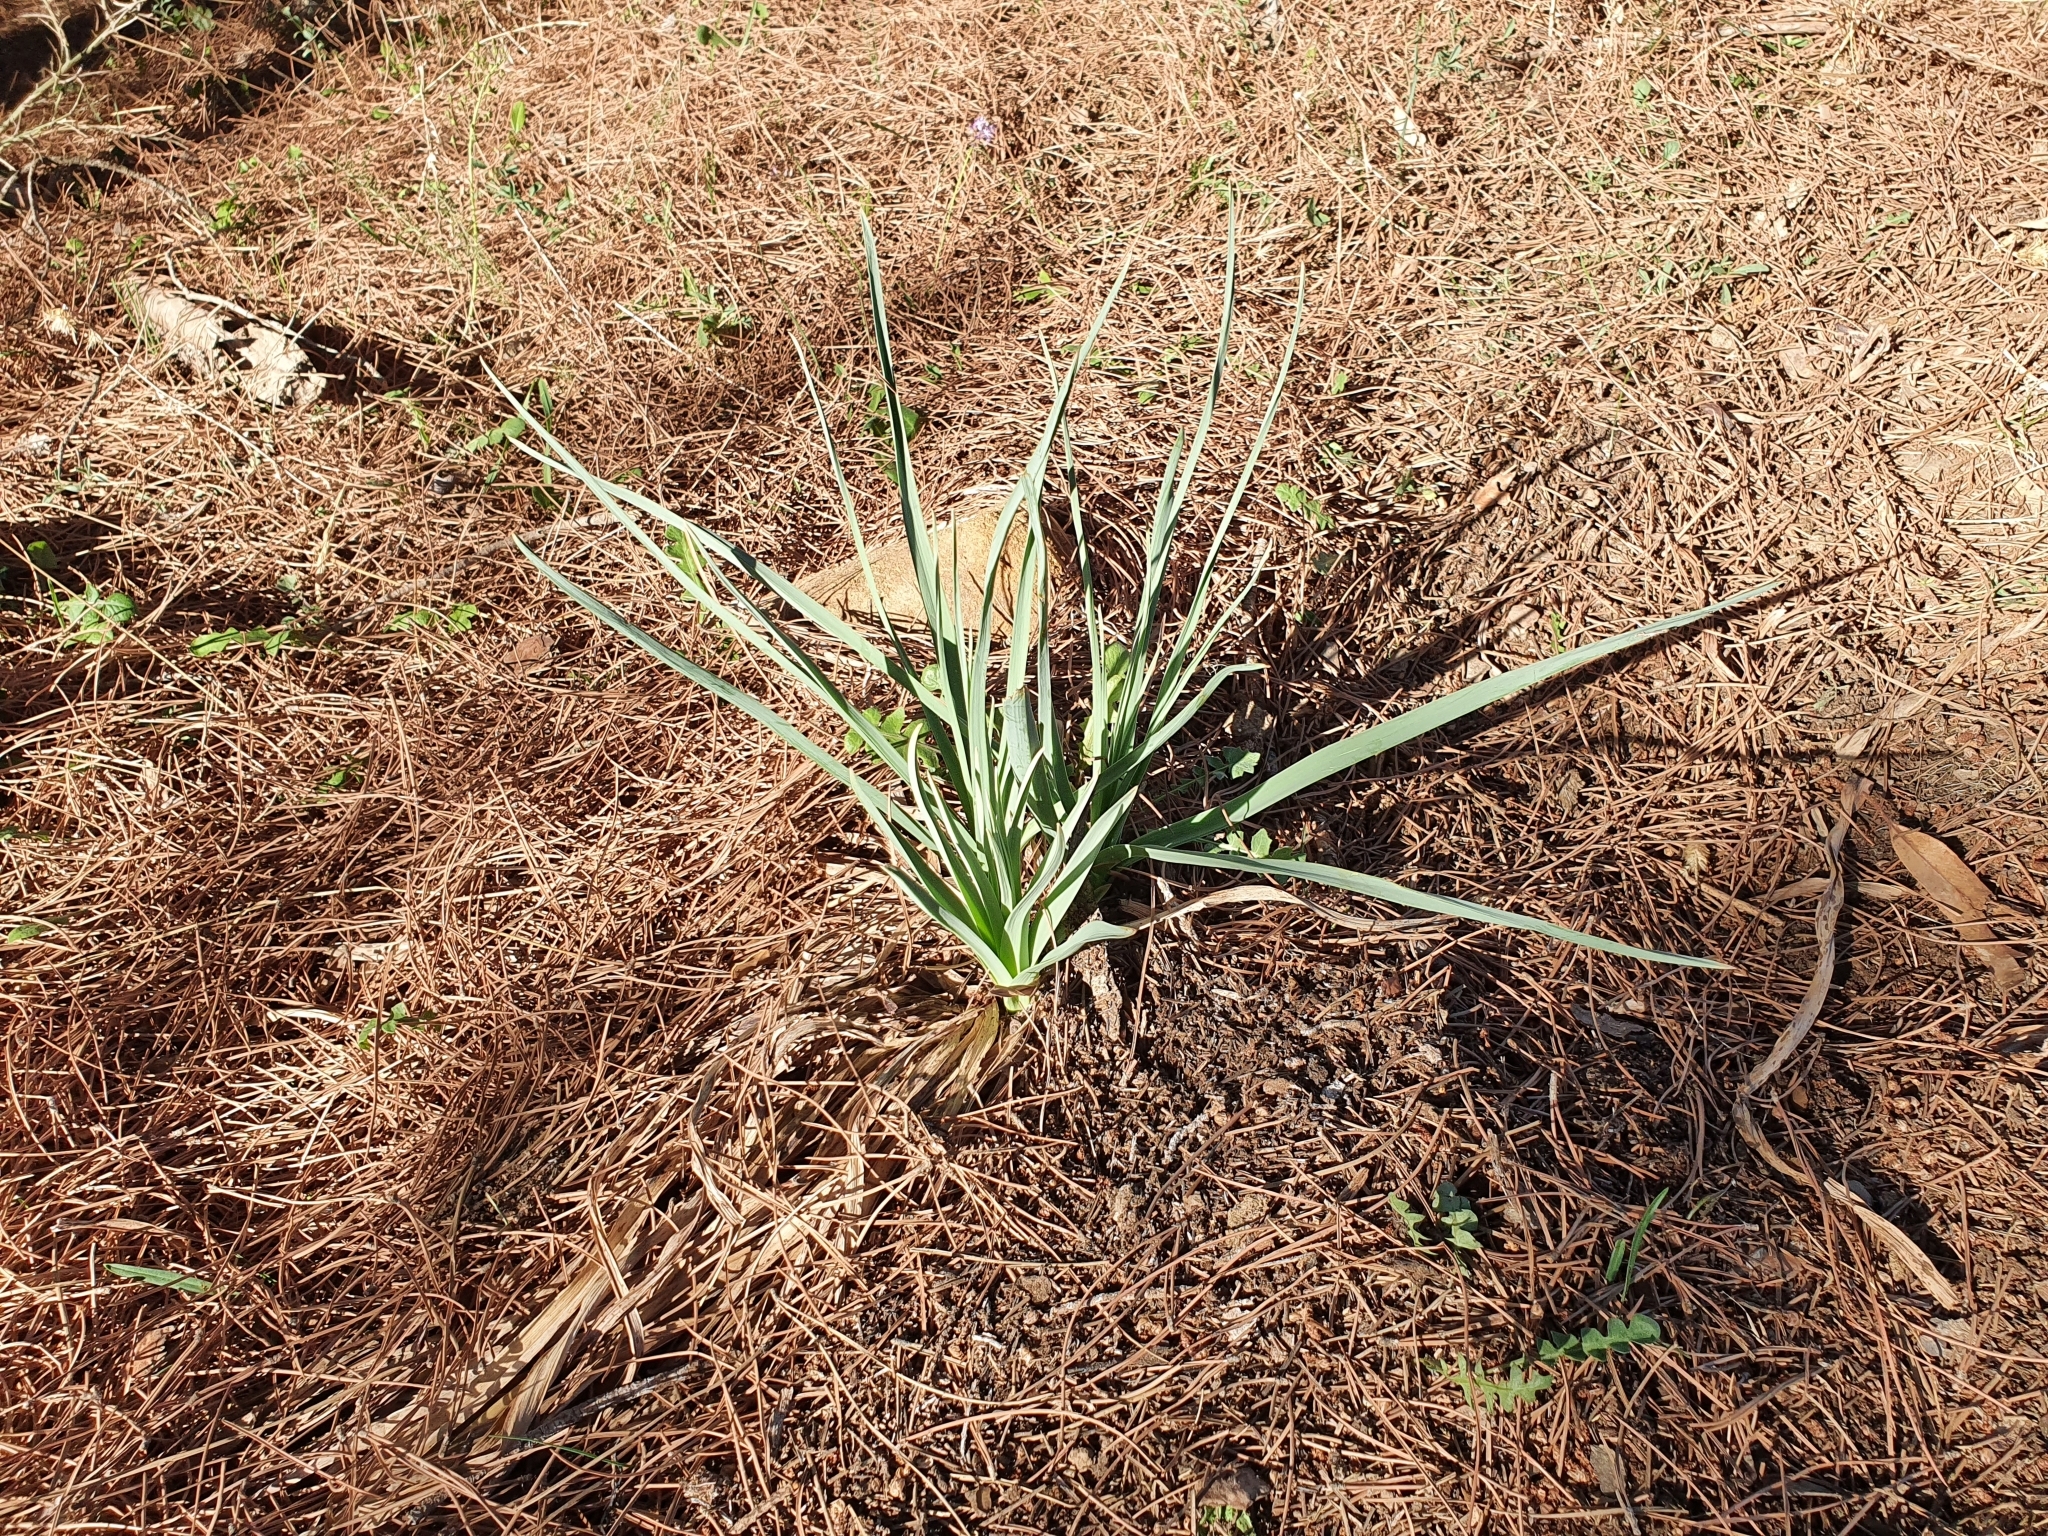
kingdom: Plantae
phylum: Tracheophyta
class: Liliopsida
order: Asparagales
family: Asphodelaceae
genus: Asphodelus
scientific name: Asphodelus ramosus
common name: Silverrod
